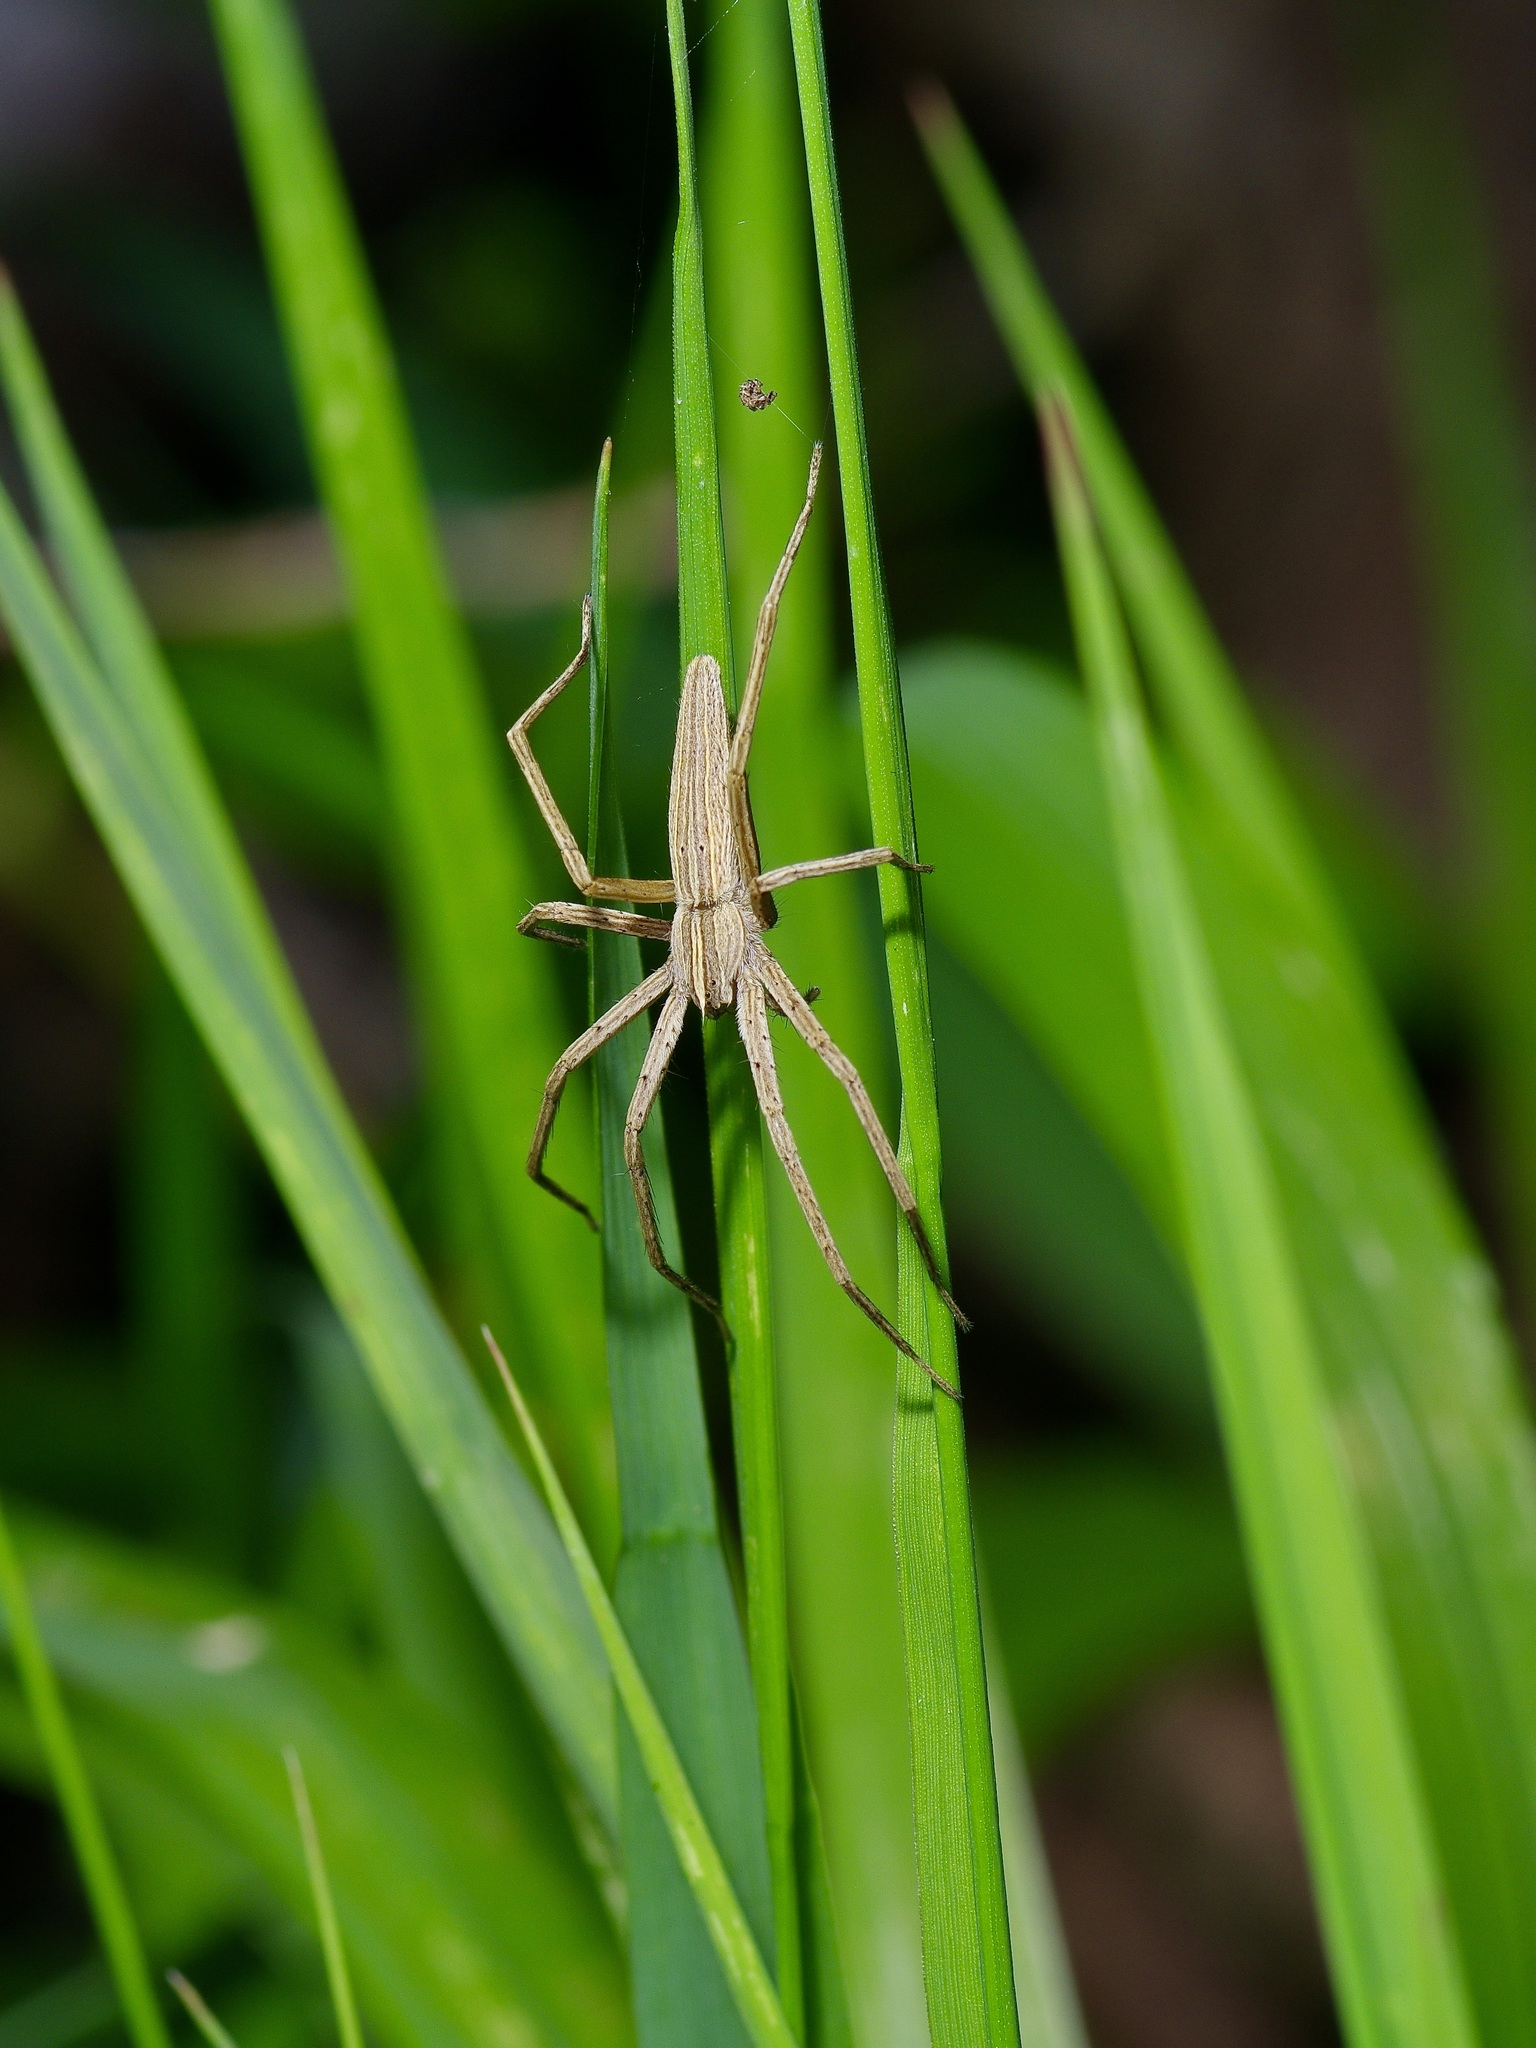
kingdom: Animalia
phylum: Arthropoda
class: Arachnida
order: Araneae
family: Pisauridae
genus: Pisaurina
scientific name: Pisaurina dubia
